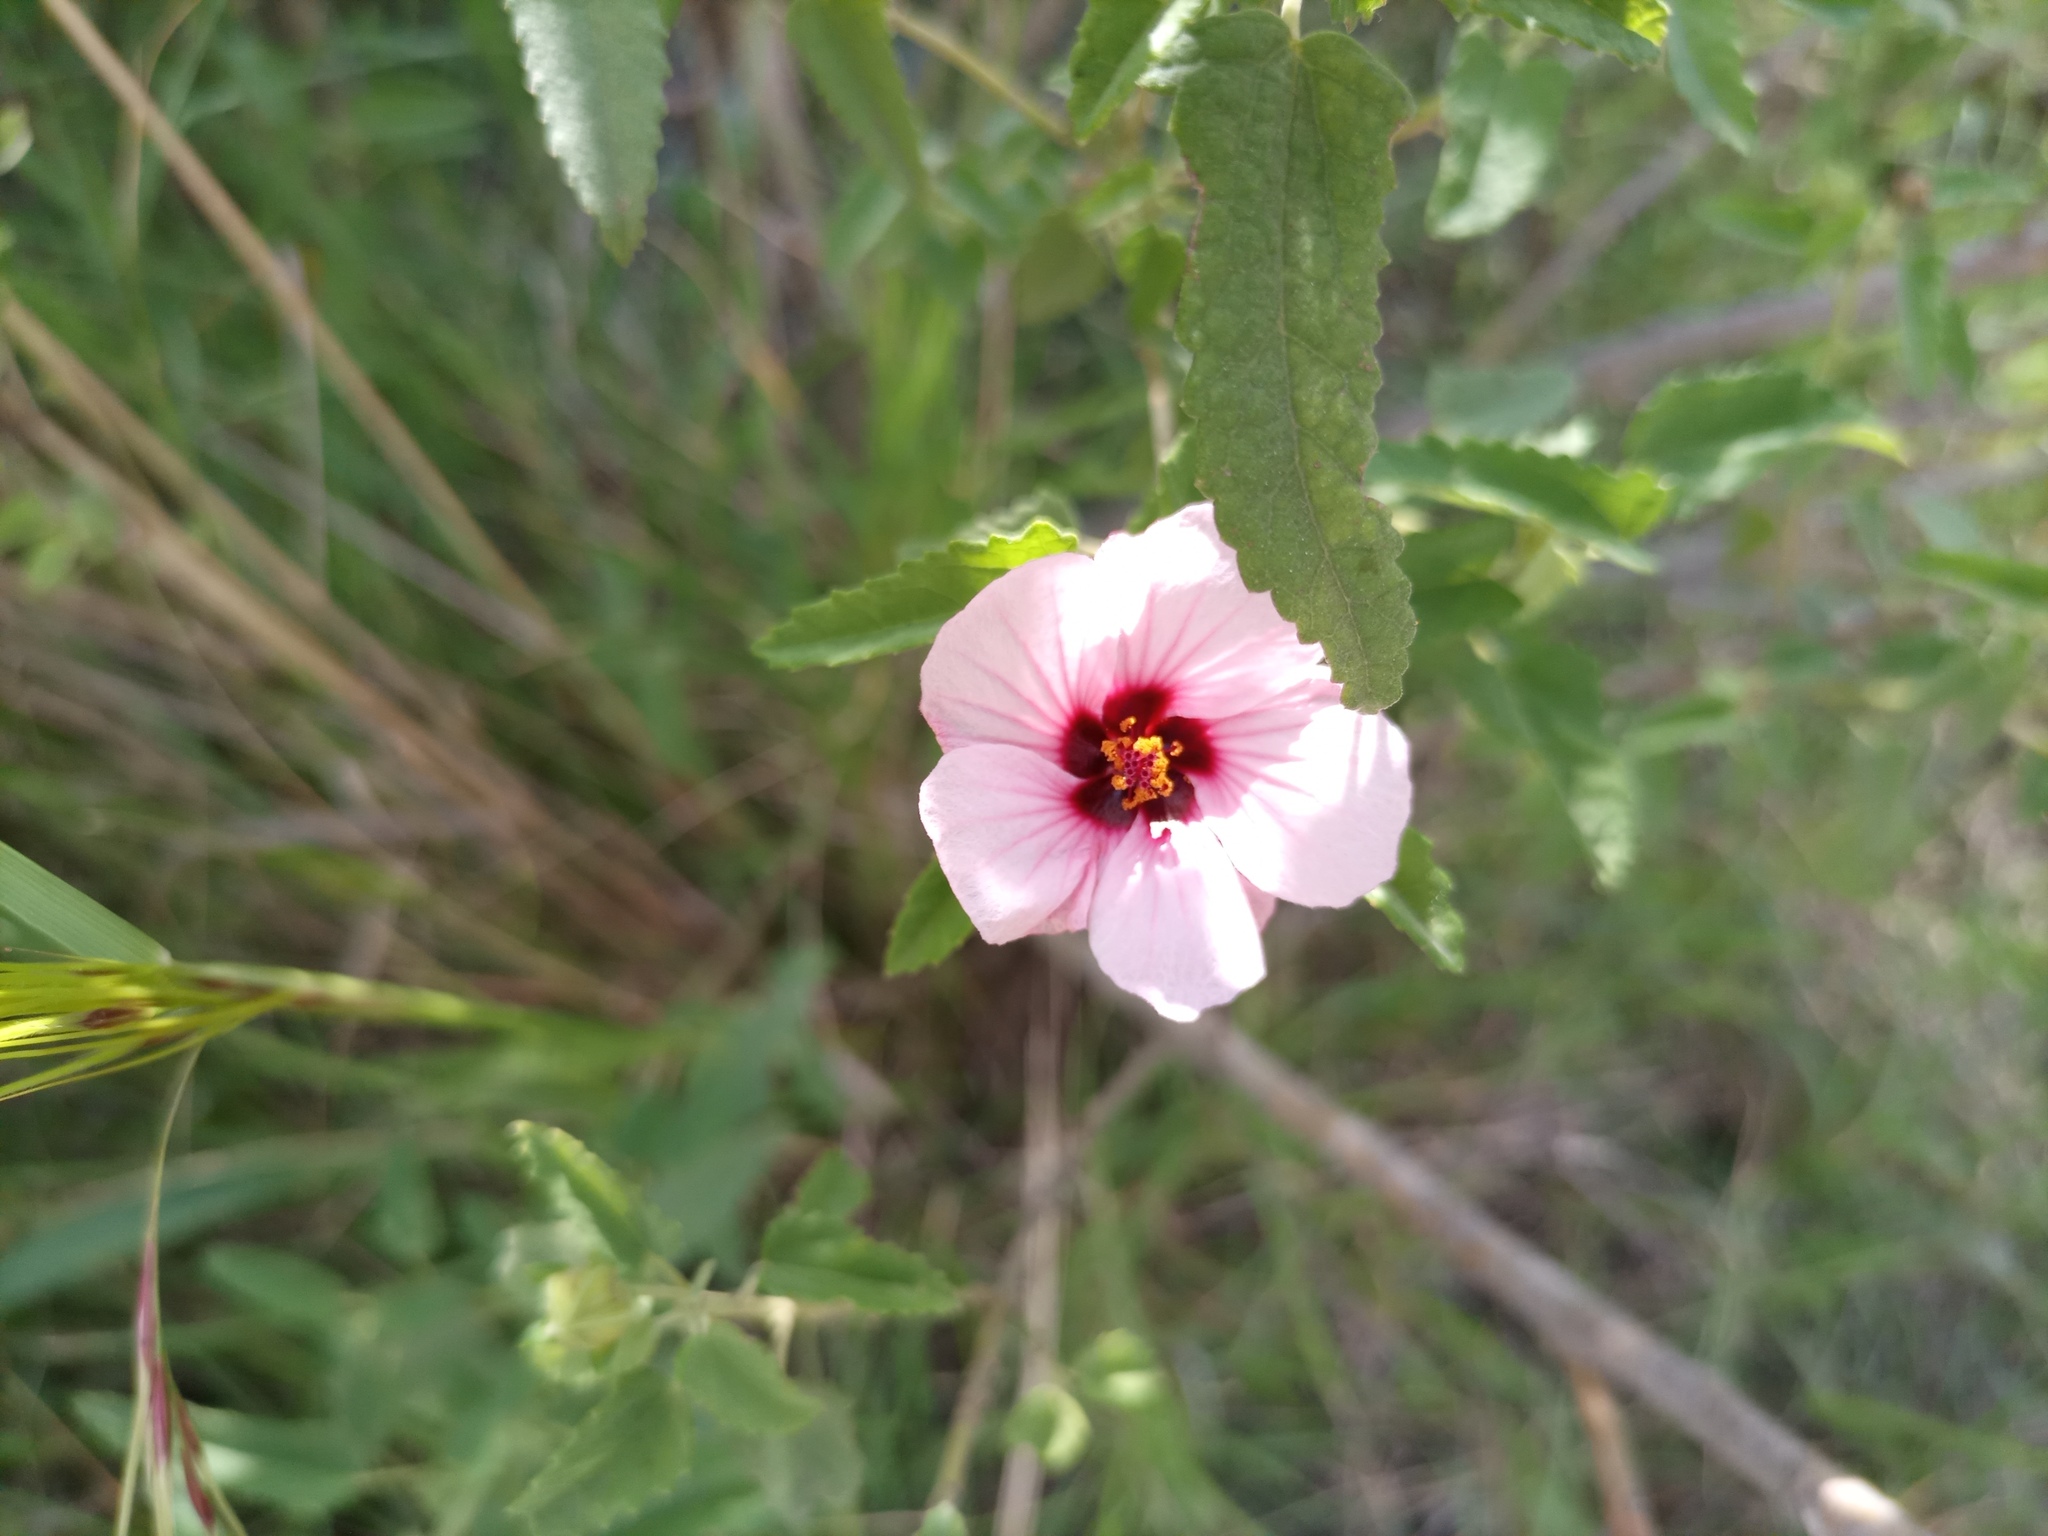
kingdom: Plantae
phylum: Tracheophyta
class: Magnoliopsida
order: Malvales
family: Malvaceae
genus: Pavonia
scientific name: Pavonia hastata
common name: Spearleaf swampmallow
